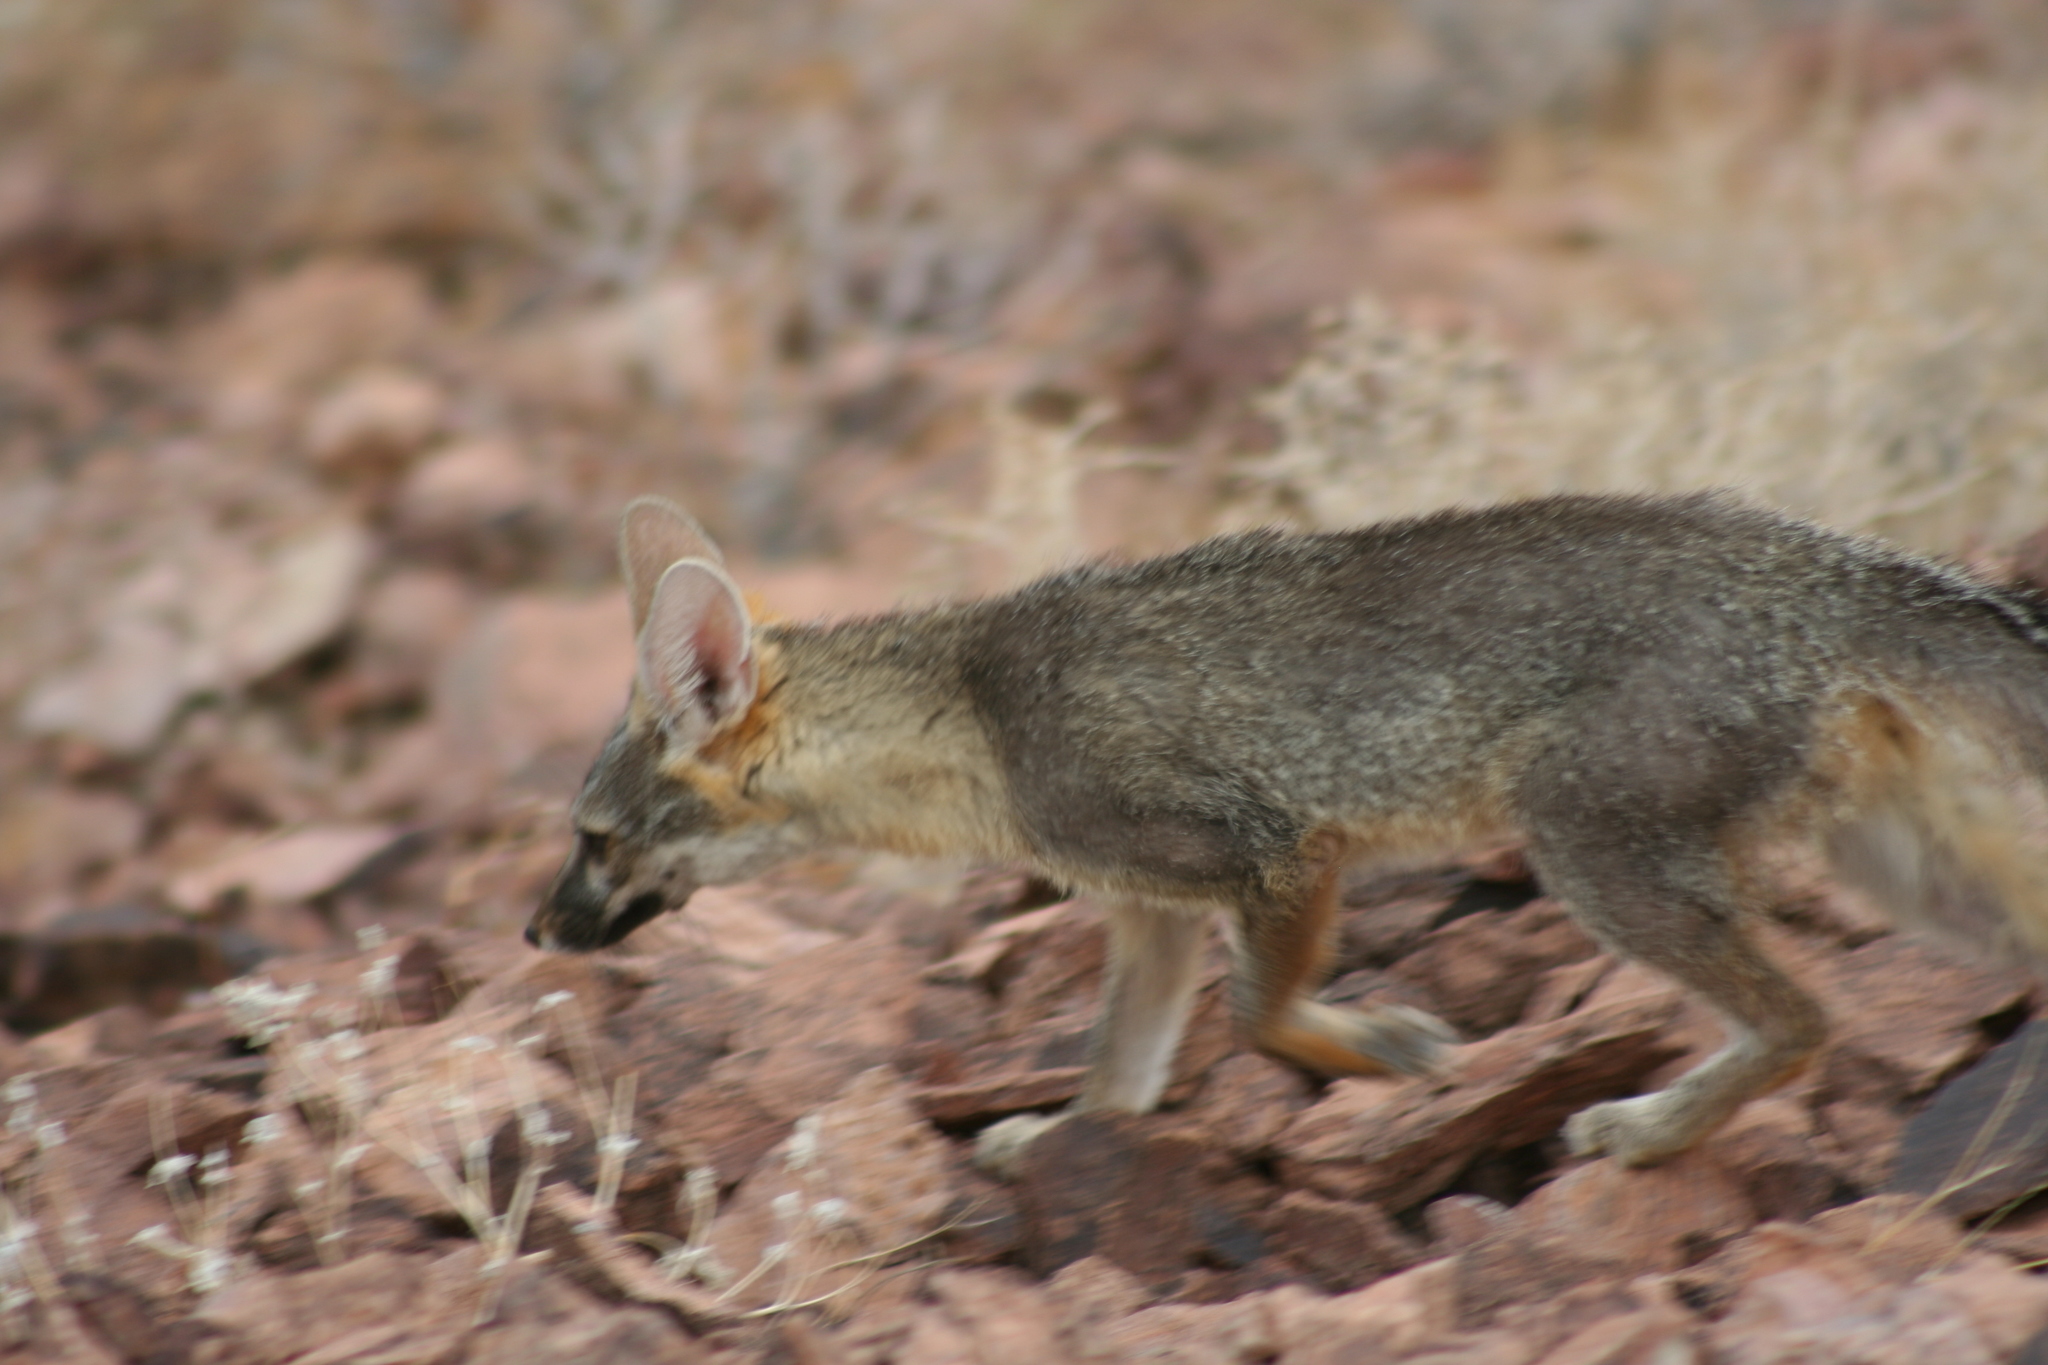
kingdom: Animalia
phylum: Chordata
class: Mammalia
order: Carnivora
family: Canidae
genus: Urocyon
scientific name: Urocyon cinereoargenteus
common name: Gray fox
